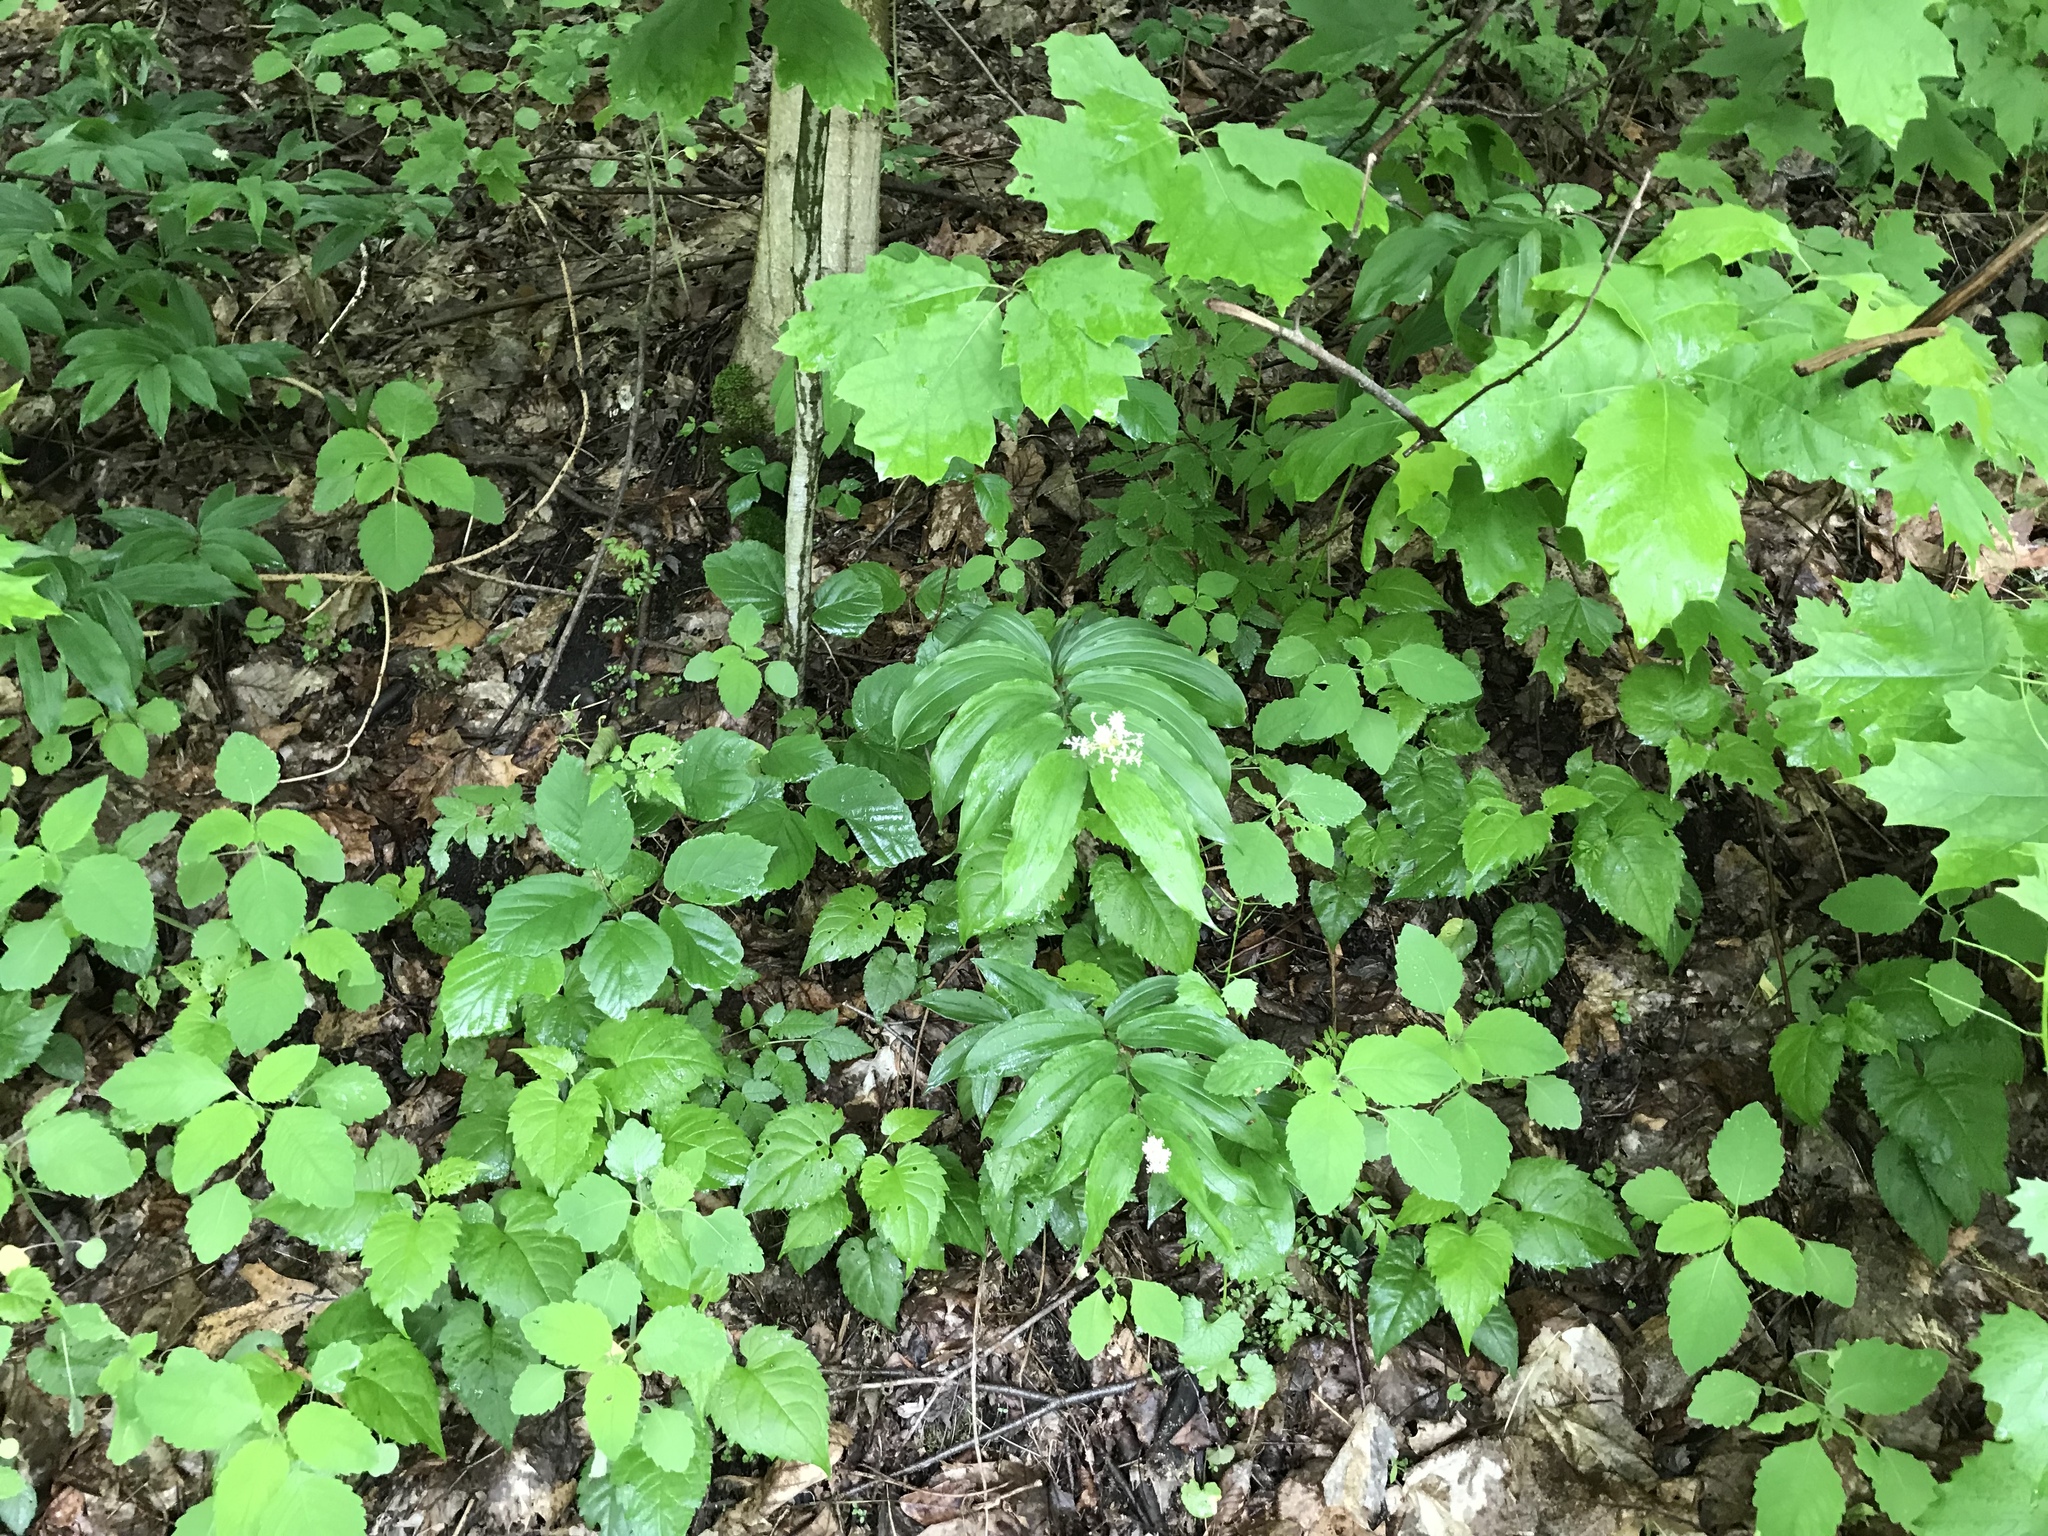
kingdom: Plantae
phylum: Tracheophyta
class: Liliopsida
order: Asparagales
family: Asparagaceae
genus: Maianthemum
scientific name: Maianthemum racemosum
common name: False spikenard
